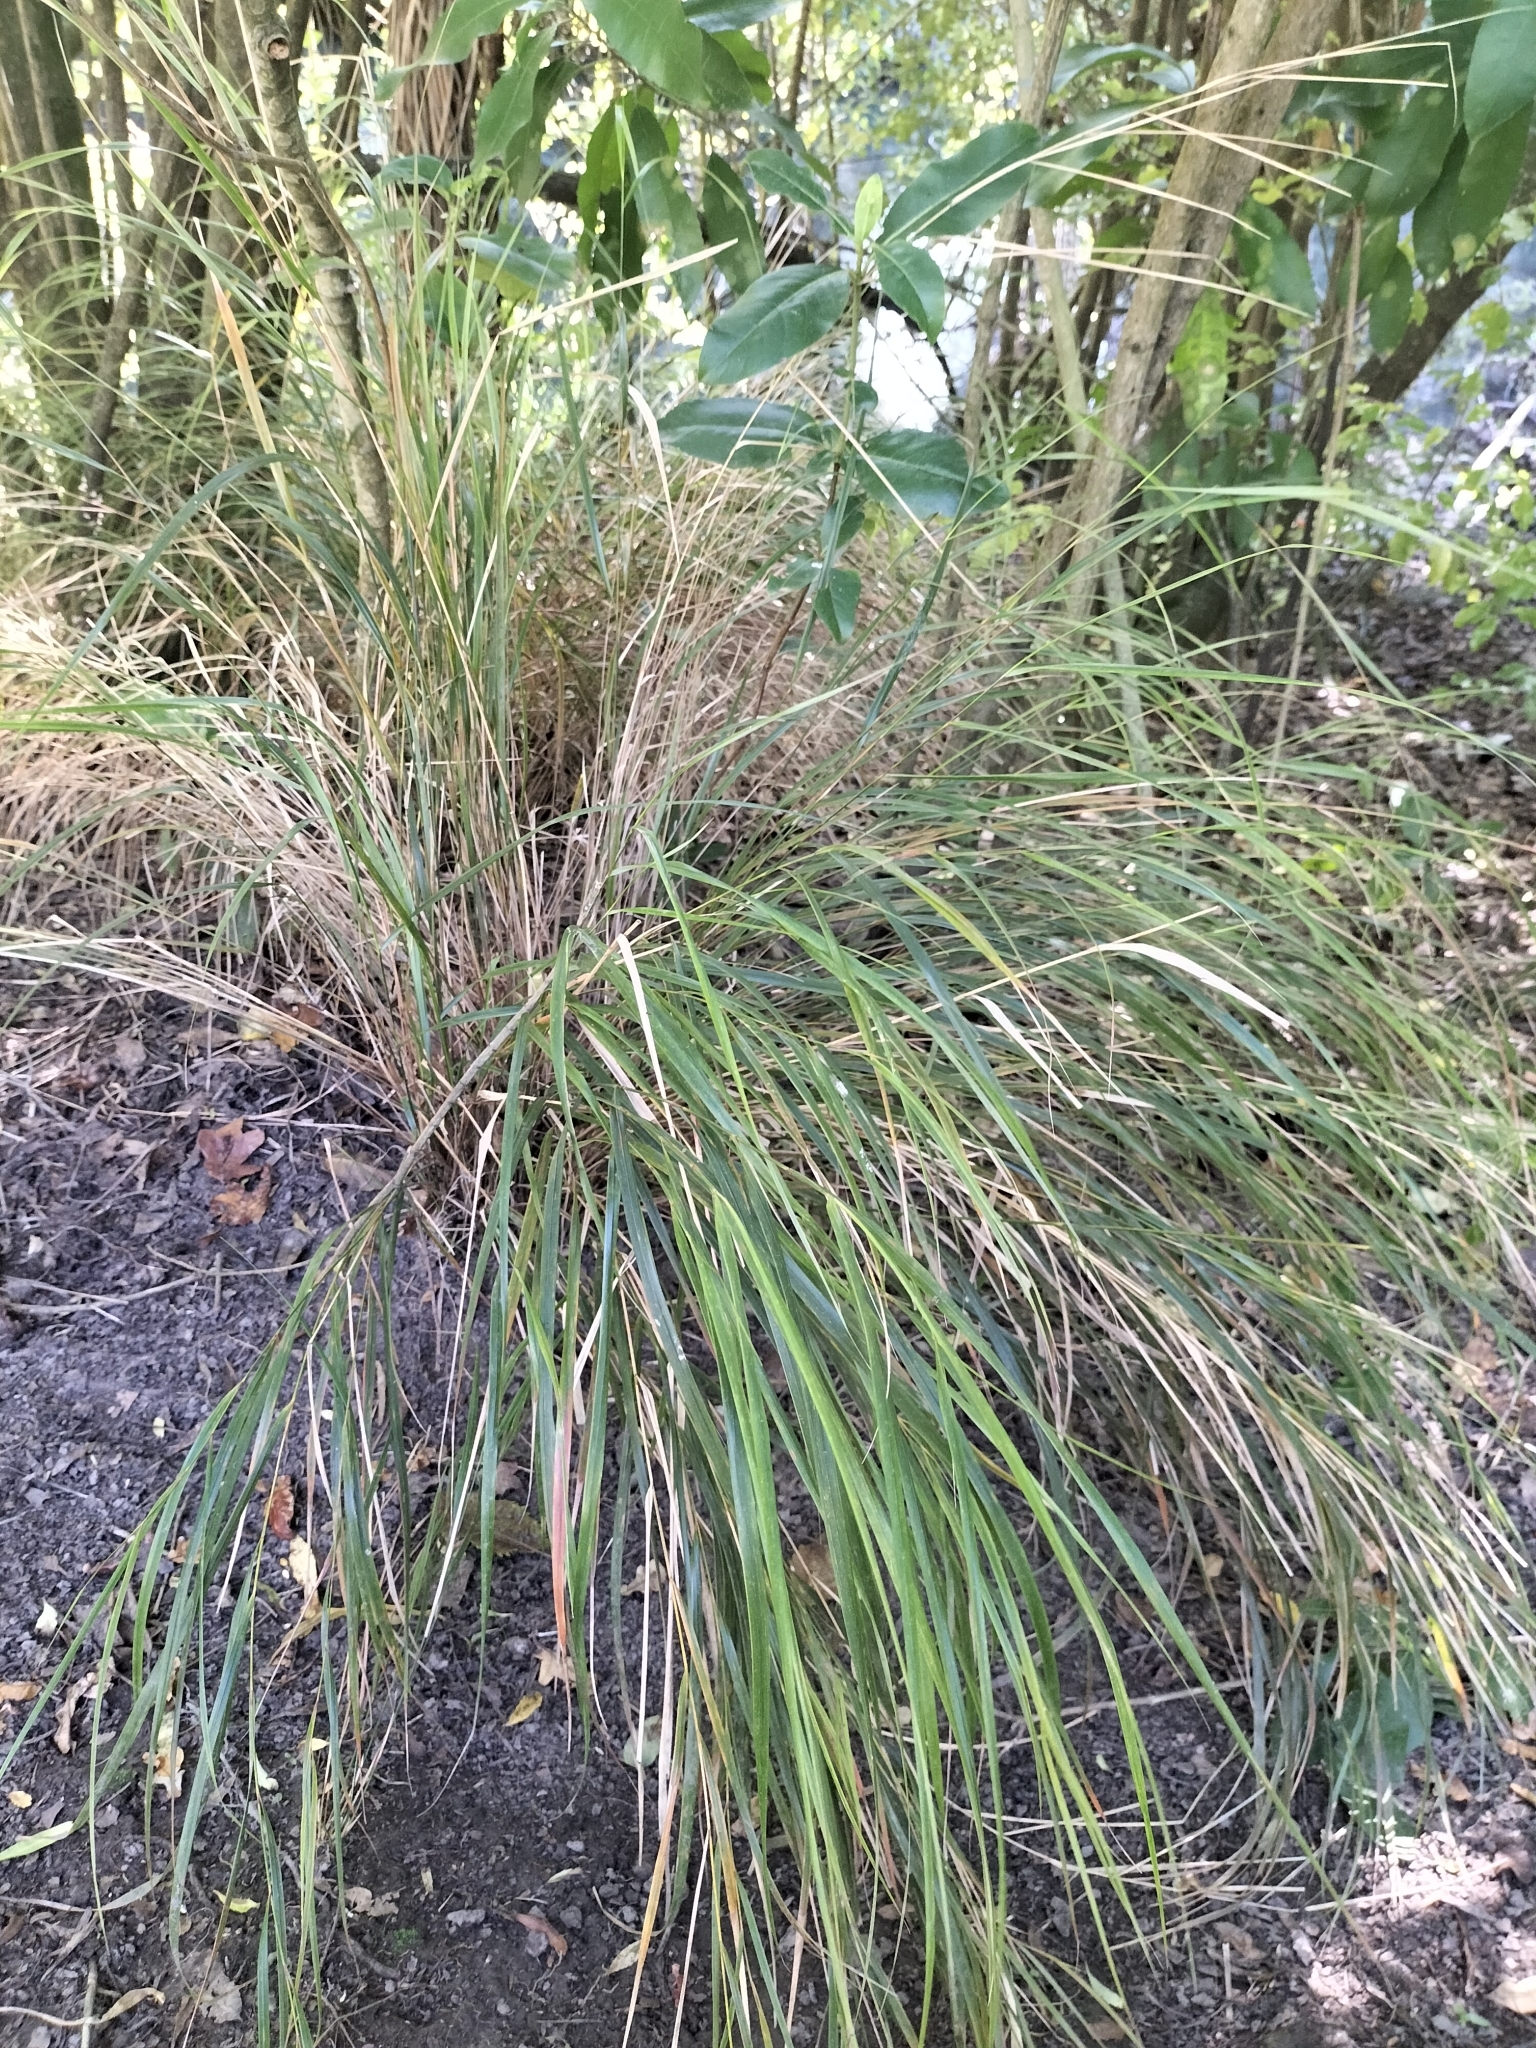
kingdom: Plantae
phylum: Tracheophyta
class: Liliopsida
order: Poales
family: Poaceae
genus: Anemanthele
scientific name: Anemanthele lessoniana
